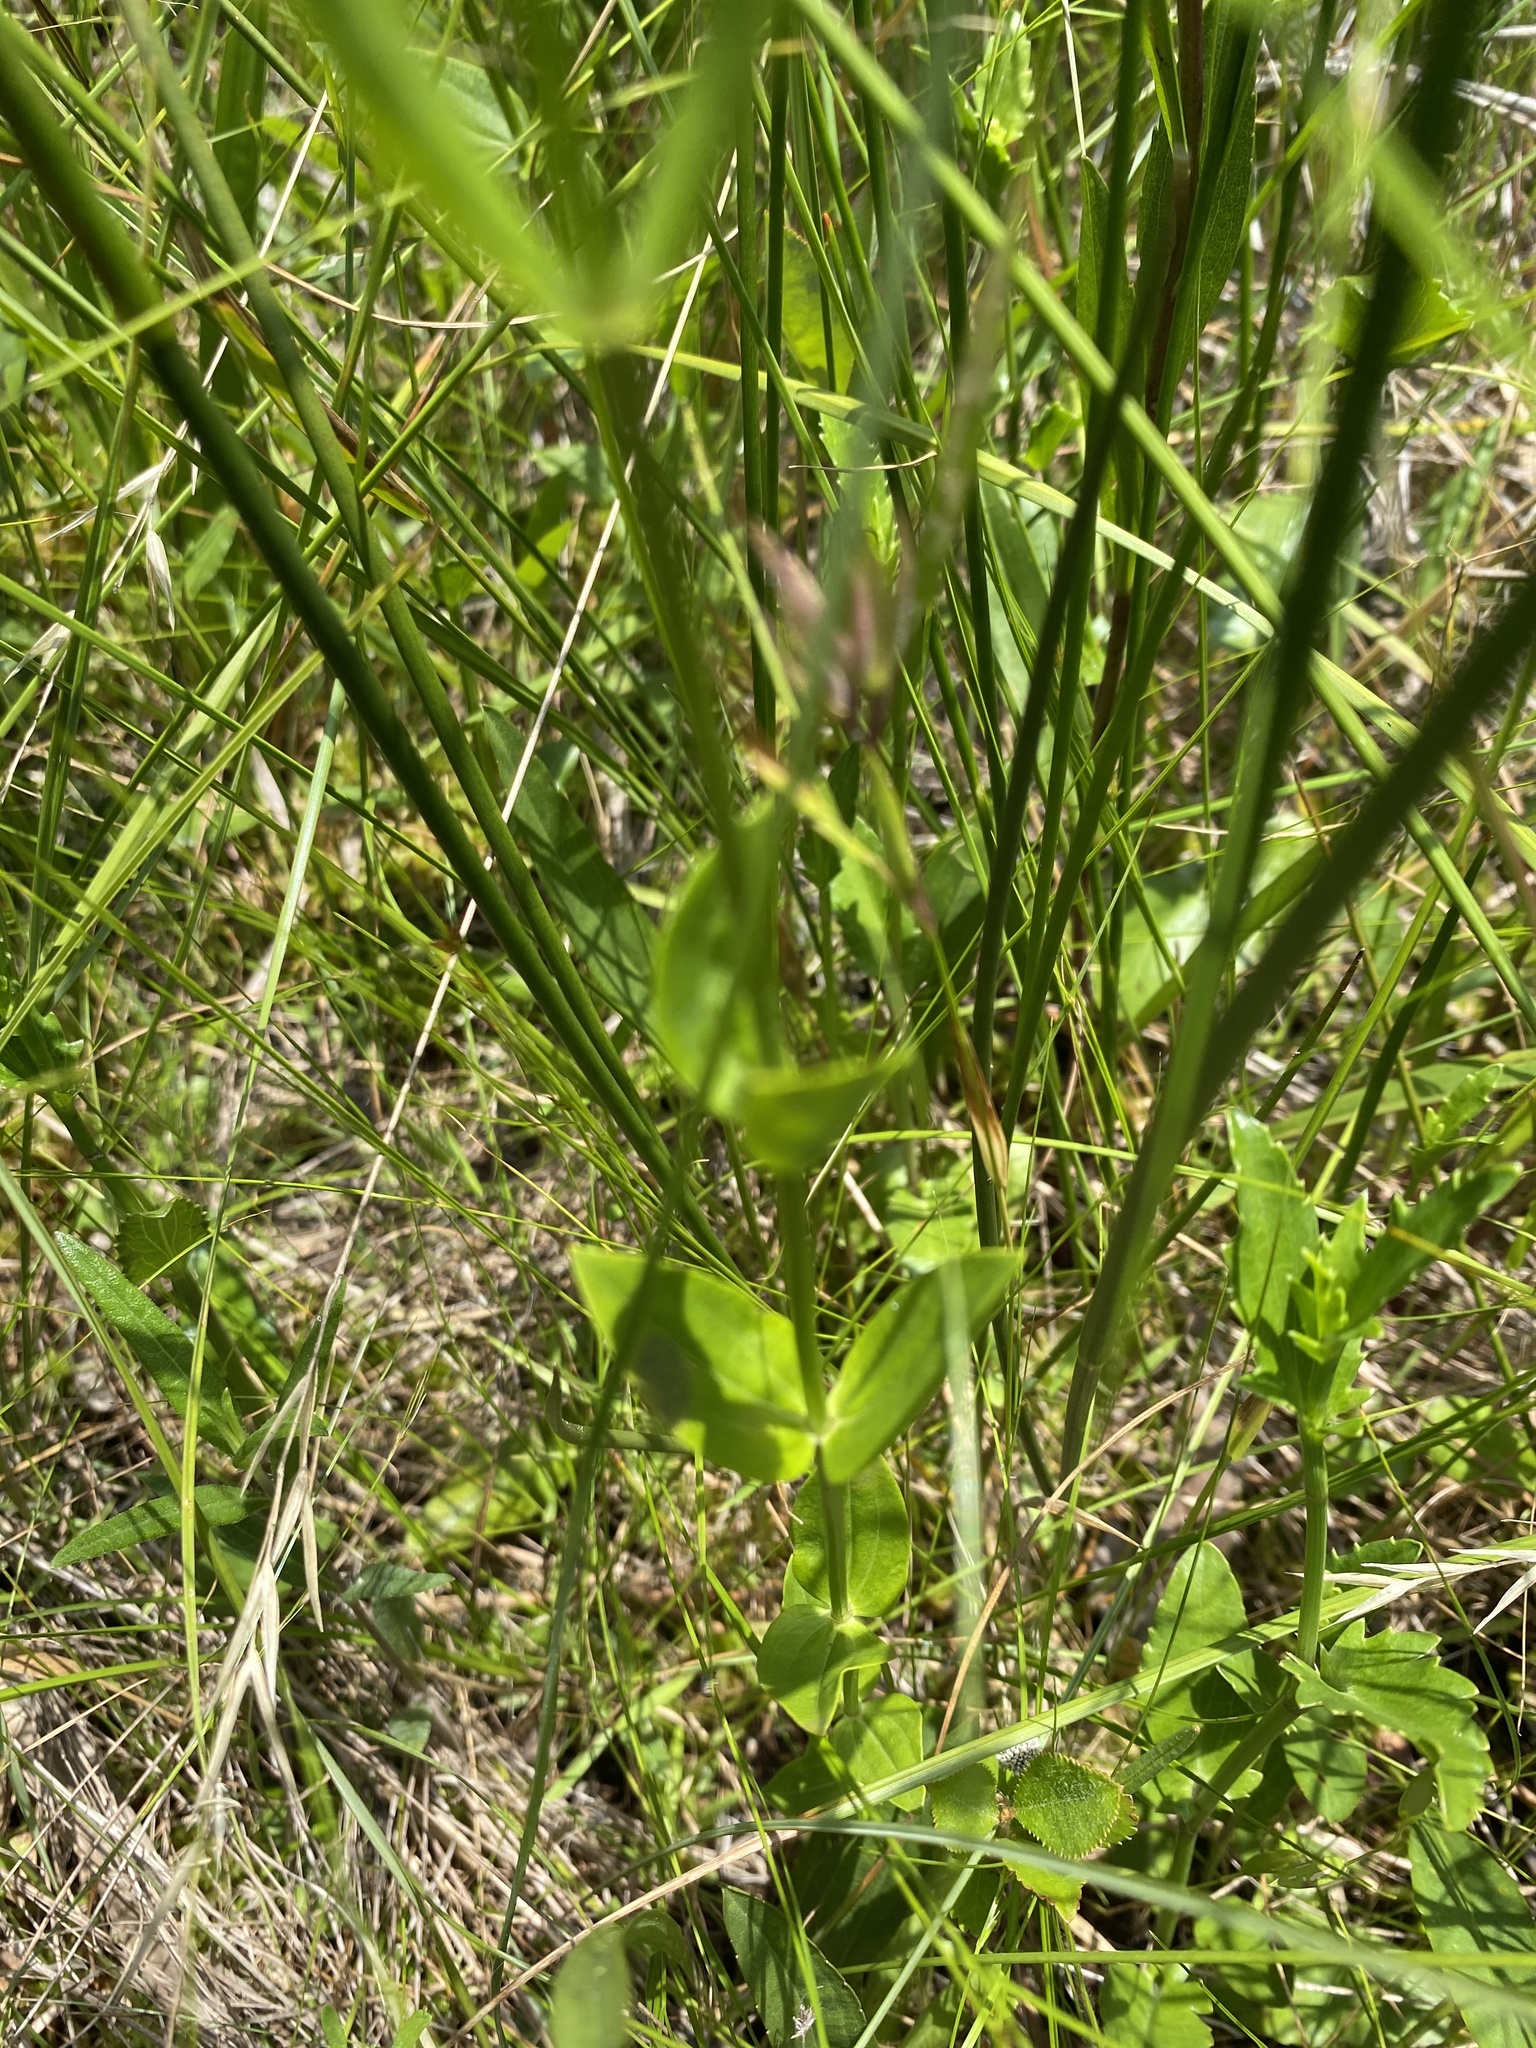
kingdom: Plantae
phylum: Tracheophyta
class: Magnoliopsida
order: Gentianales
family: Gentianaceae
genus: Sabatia
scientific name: Sabatia difformis
